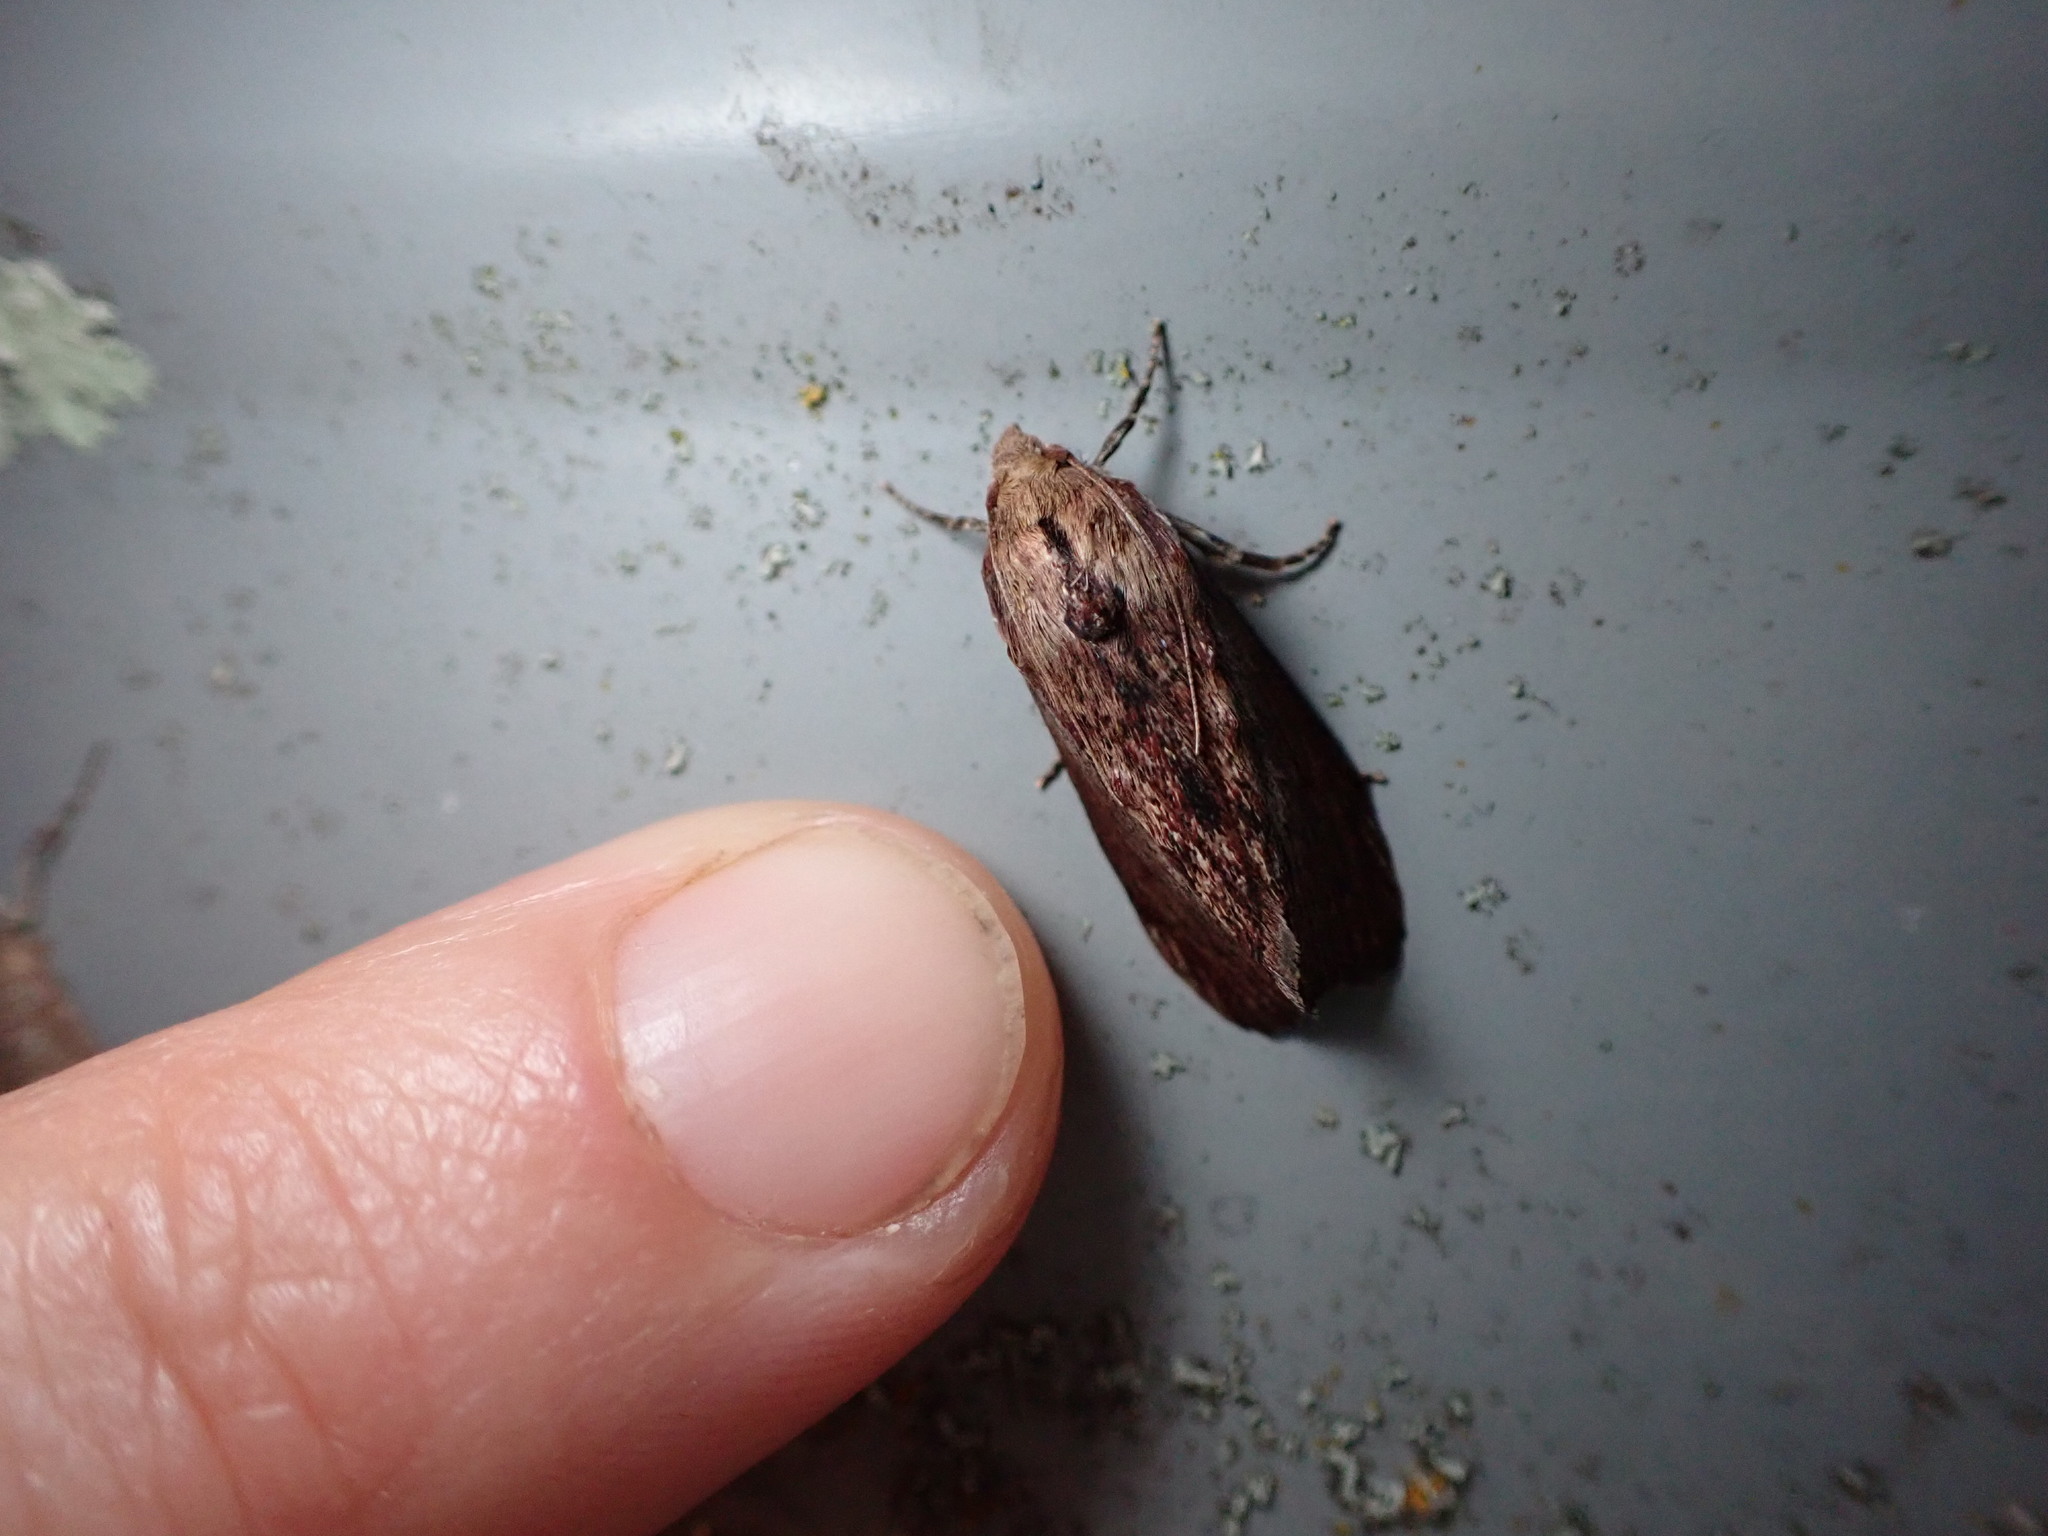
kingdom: Animalia
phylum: Arthropoda
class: Insecta
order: Lepidoptera
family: Pyralidae
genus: Galleria
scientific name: Galleria mellonella
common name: Greater wax moth
